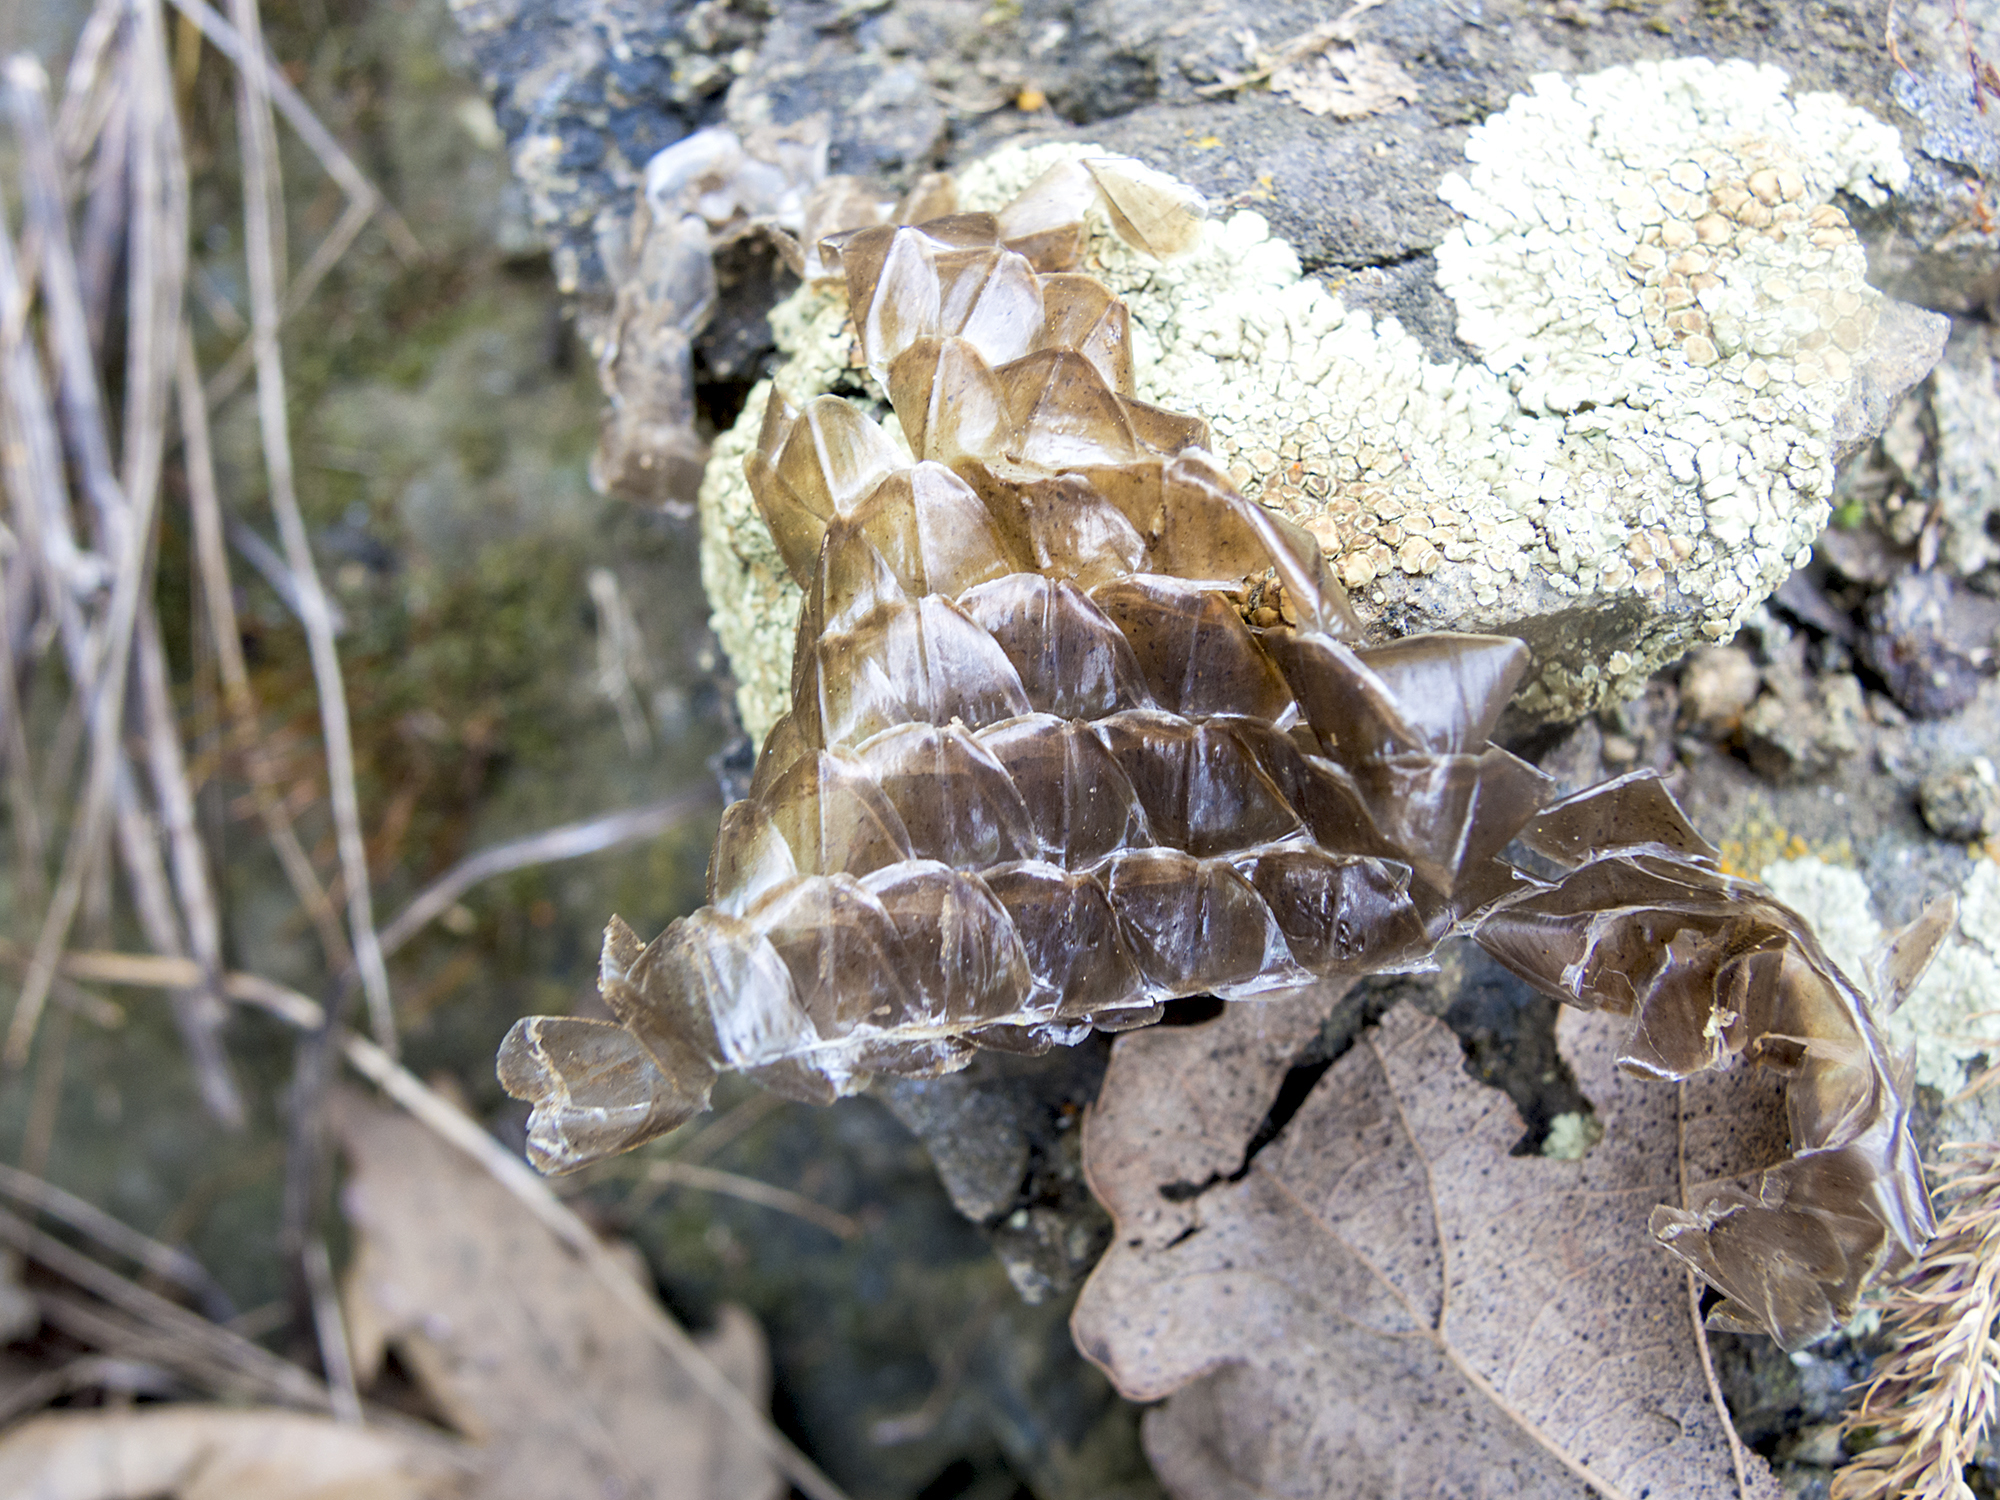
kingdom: Animalia
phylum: Chordata
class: Squamata
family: Anguidae
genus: Pseudopus
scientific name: Pseudopus apodus
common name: European glass lizard
